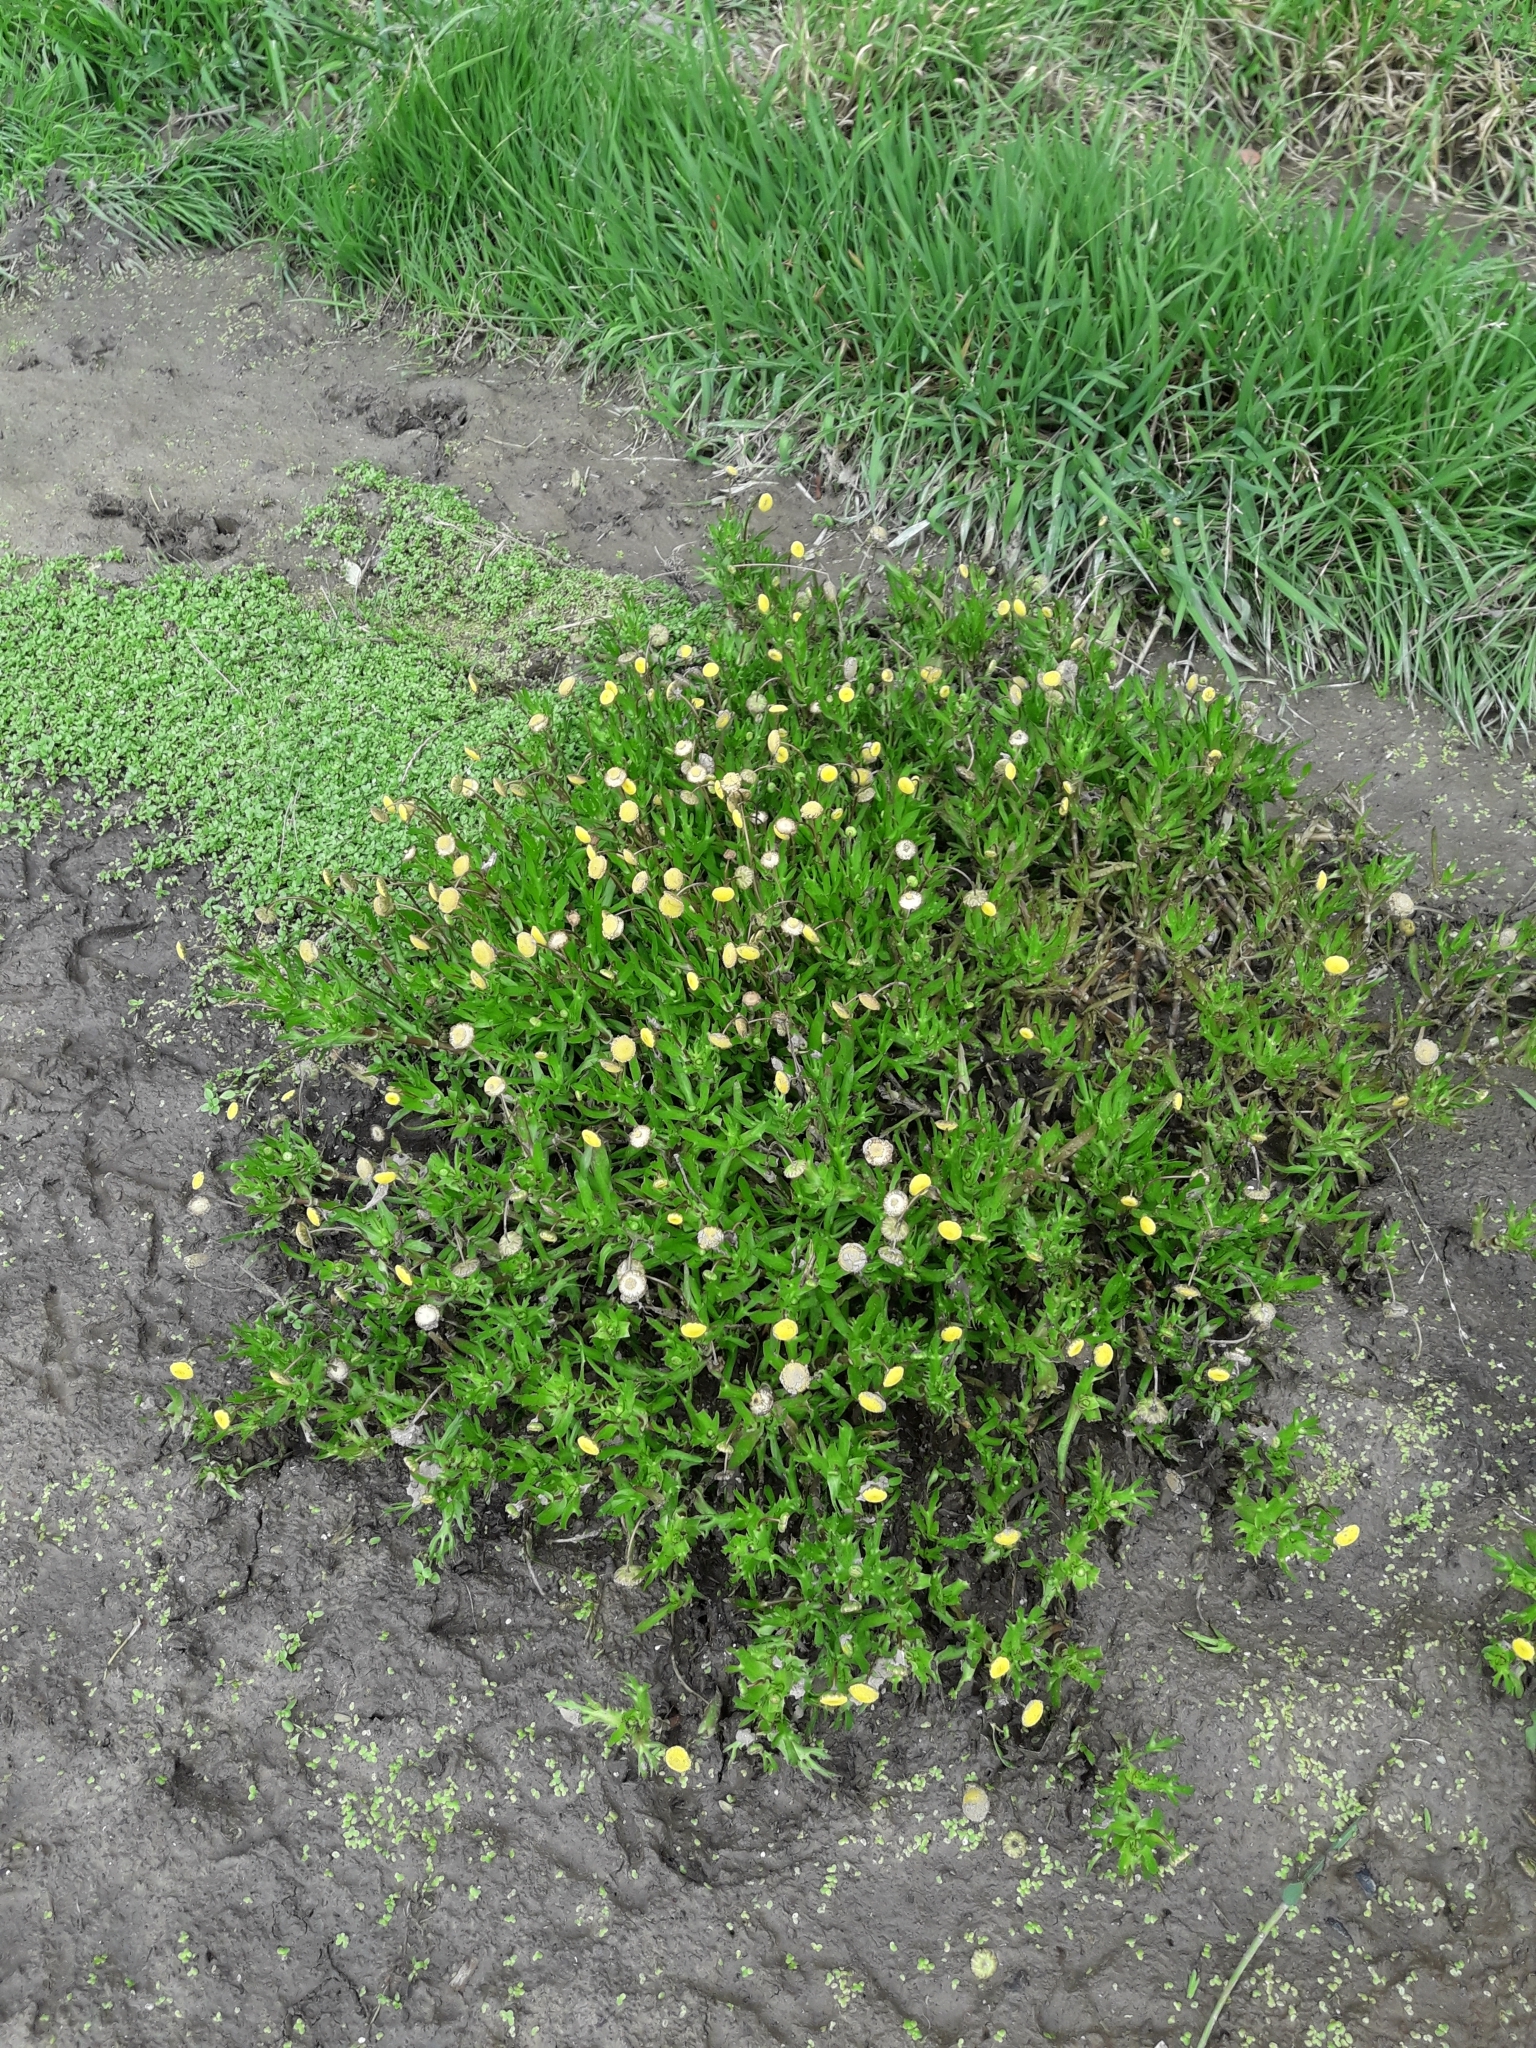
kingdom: Plantae
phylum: Tracheophyta
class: Magnoliopsida
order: Asterales
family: Asteraceae
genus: Cotula
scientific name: Cotula coronopifolia
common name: Buttonweed
